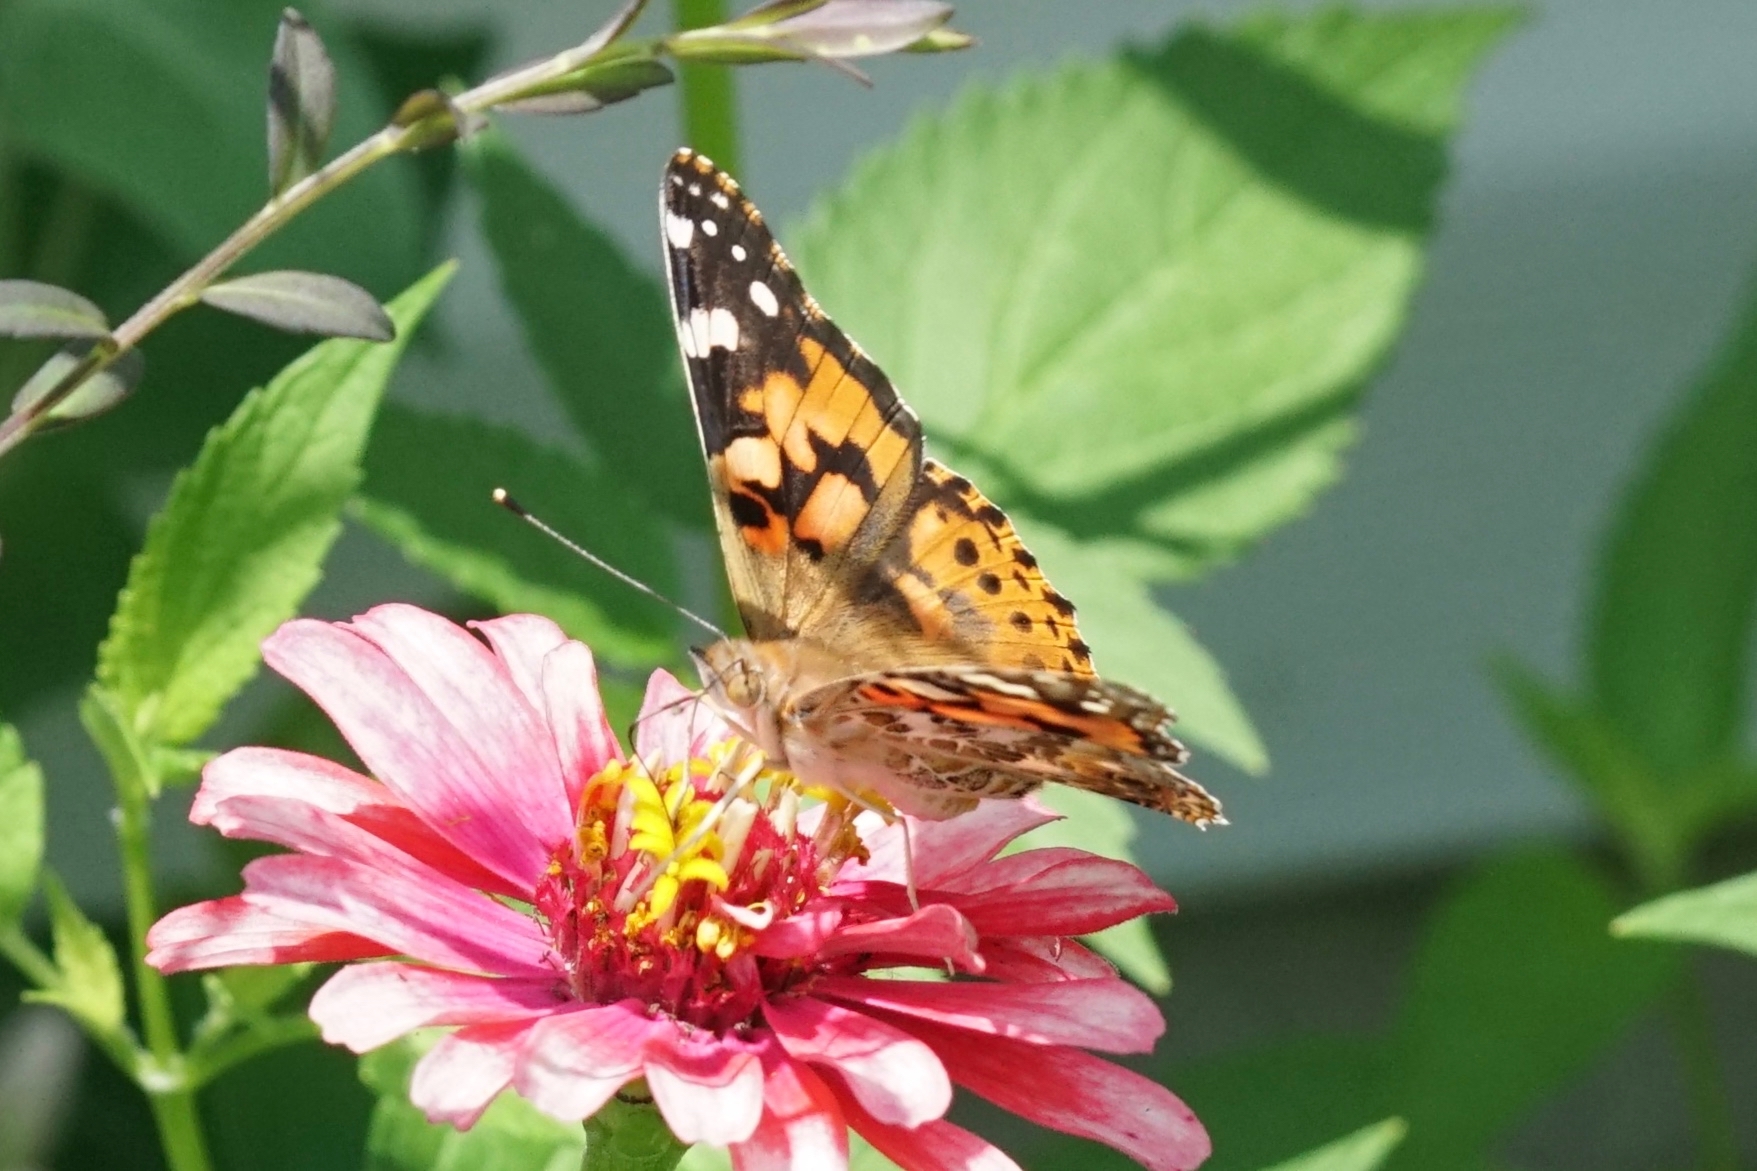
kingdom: Animalia
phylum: Arthropoda
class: Insecta
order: Lepidoptera
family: Nymphalidae
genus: Vanessa
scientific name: Vanessa cardui
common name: Painted lady
